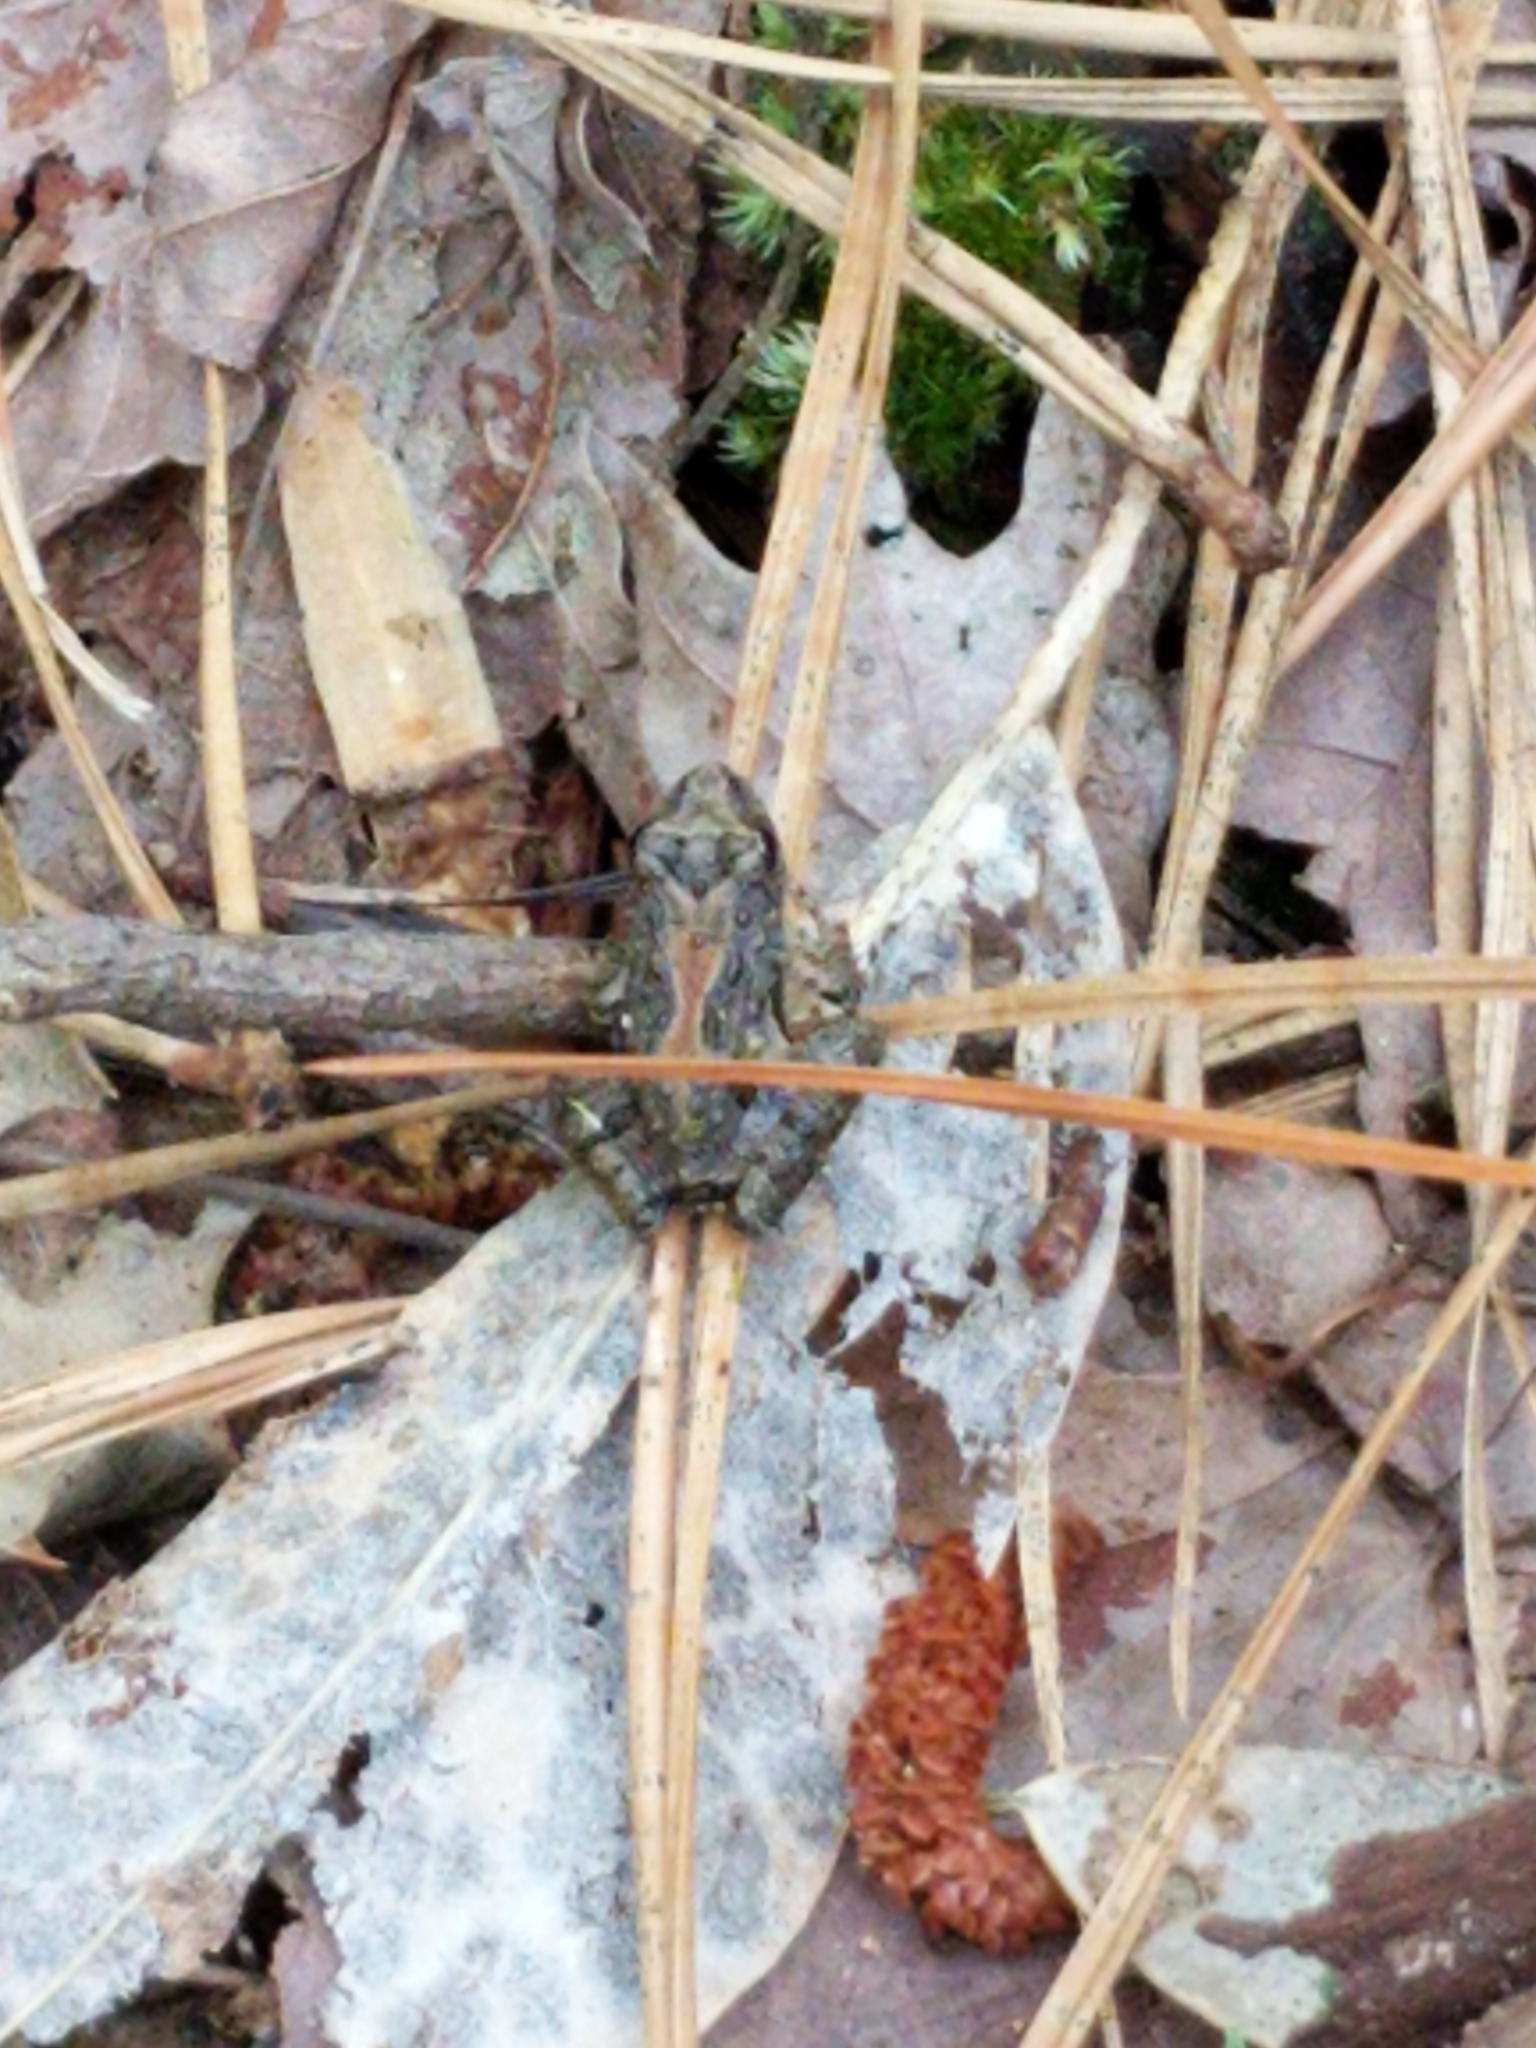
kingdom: Animalia
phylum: Chordata
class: Amphibia
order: Anura
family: Hylidae
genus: Acris
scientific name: Acris crepitans
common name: Northern cricket frog
